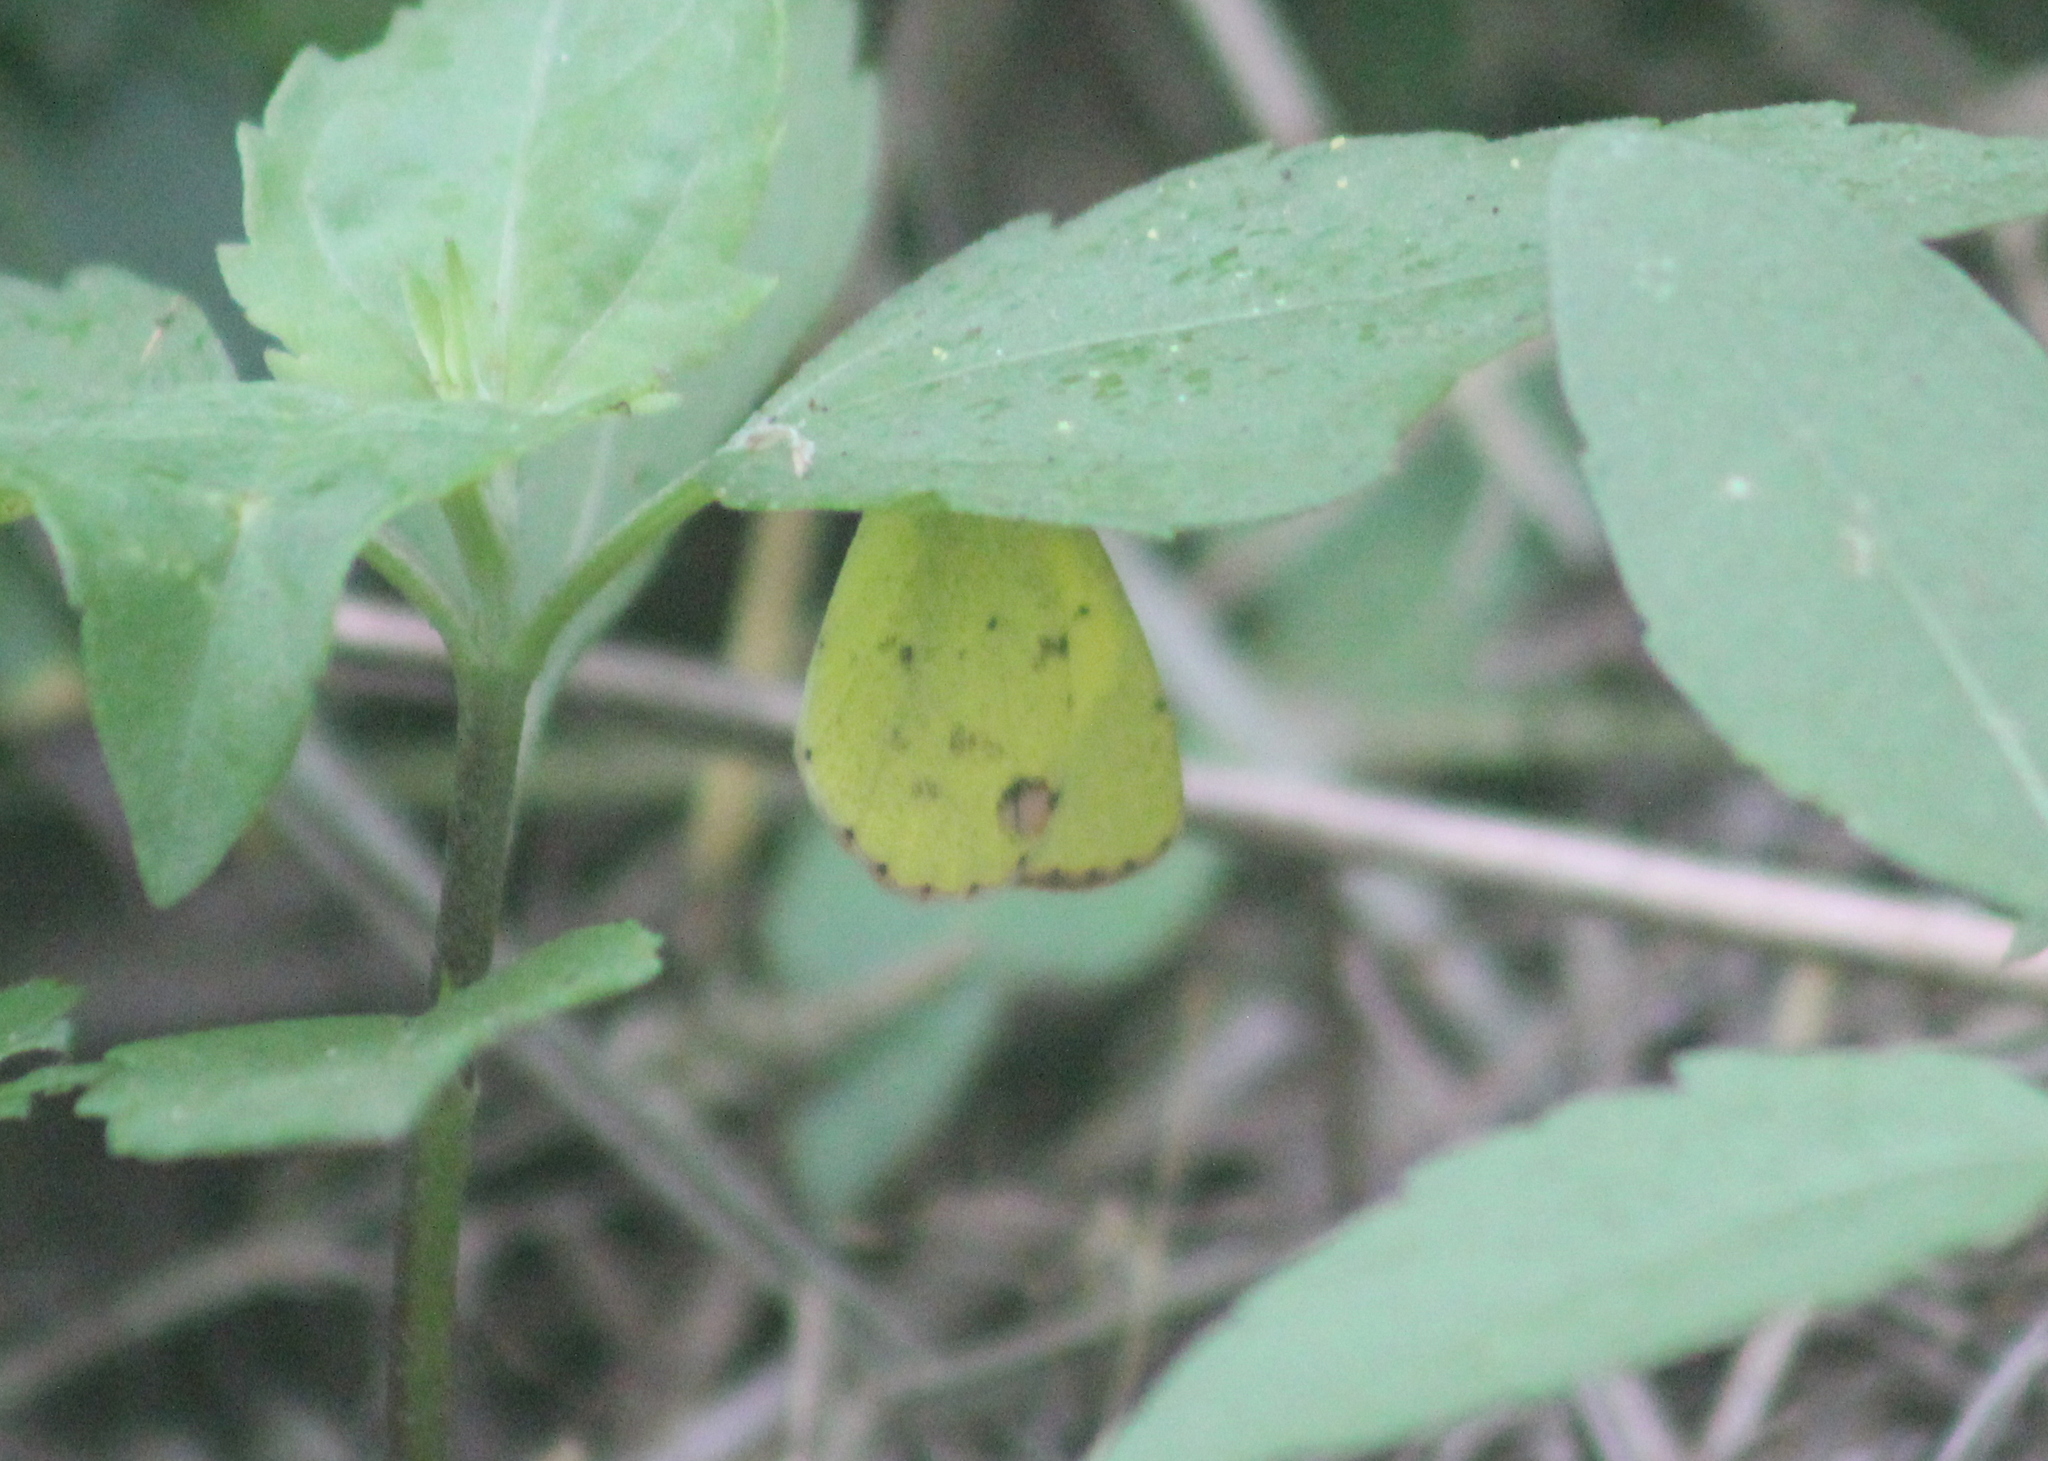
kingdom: Animalia
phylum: Arthropoda
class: Insecta
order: Lepidoptera
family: Pieridae
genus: Pyrisitia
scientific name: Pyrisitia lisa
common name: Little yellow
